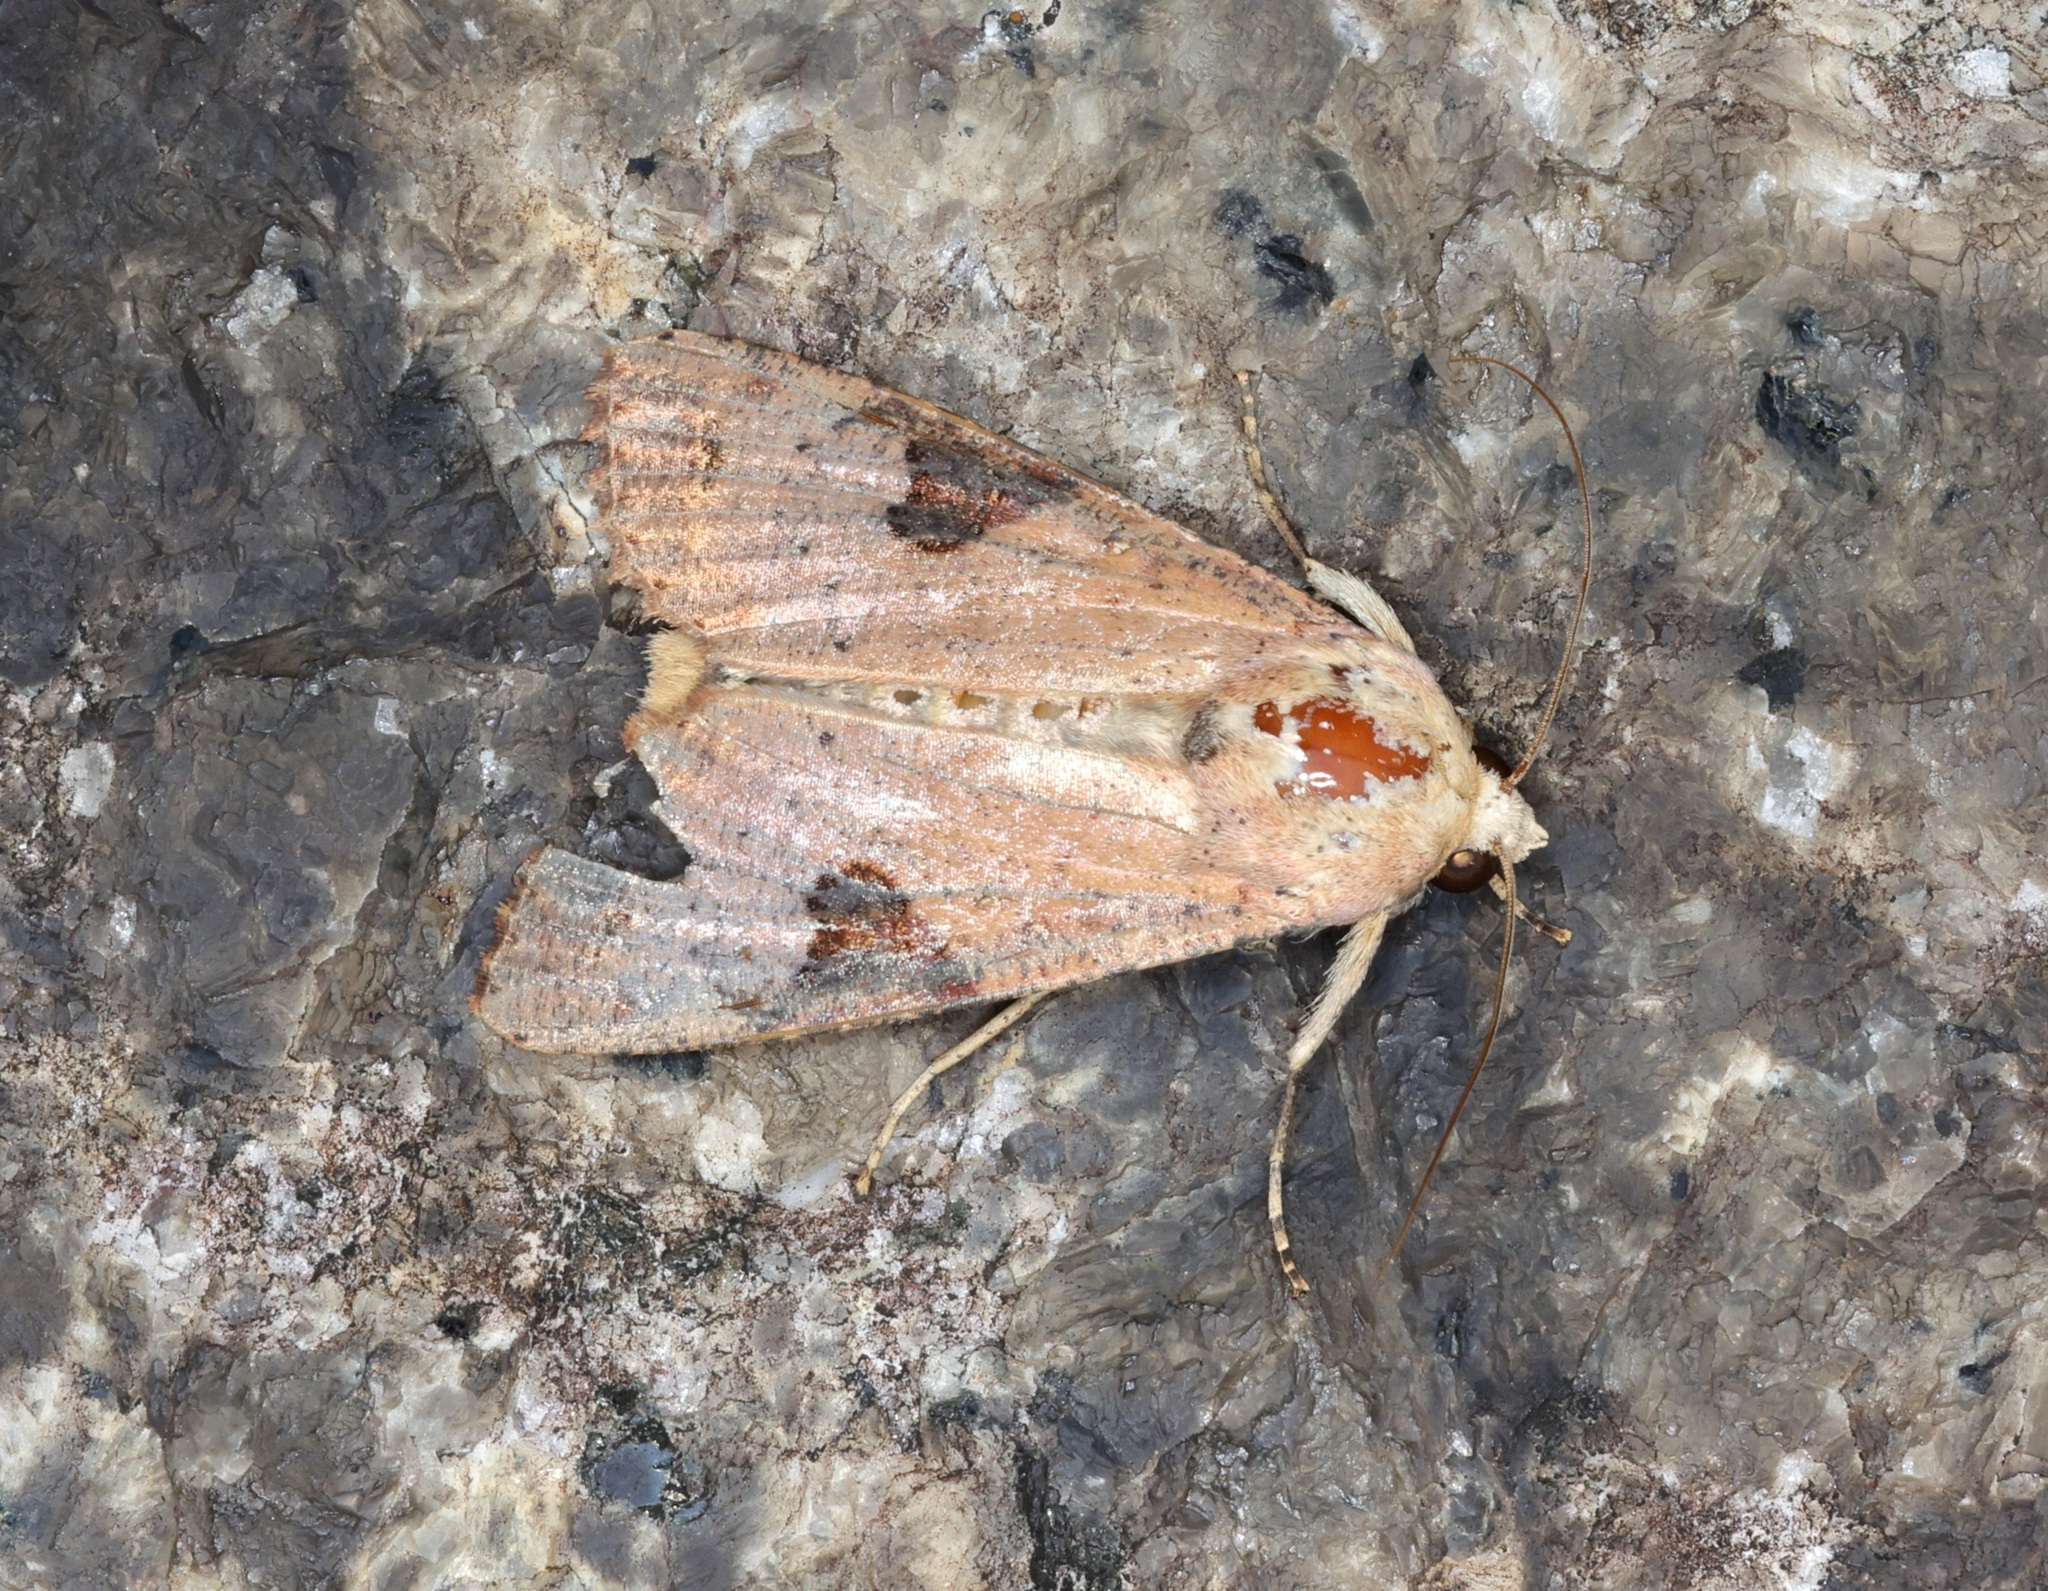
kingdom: Animalia
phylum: Arthropoda
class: Insecta
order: Lepidoptera
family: Noctuidae
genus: Tiracola
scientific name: Tiracola aureata
